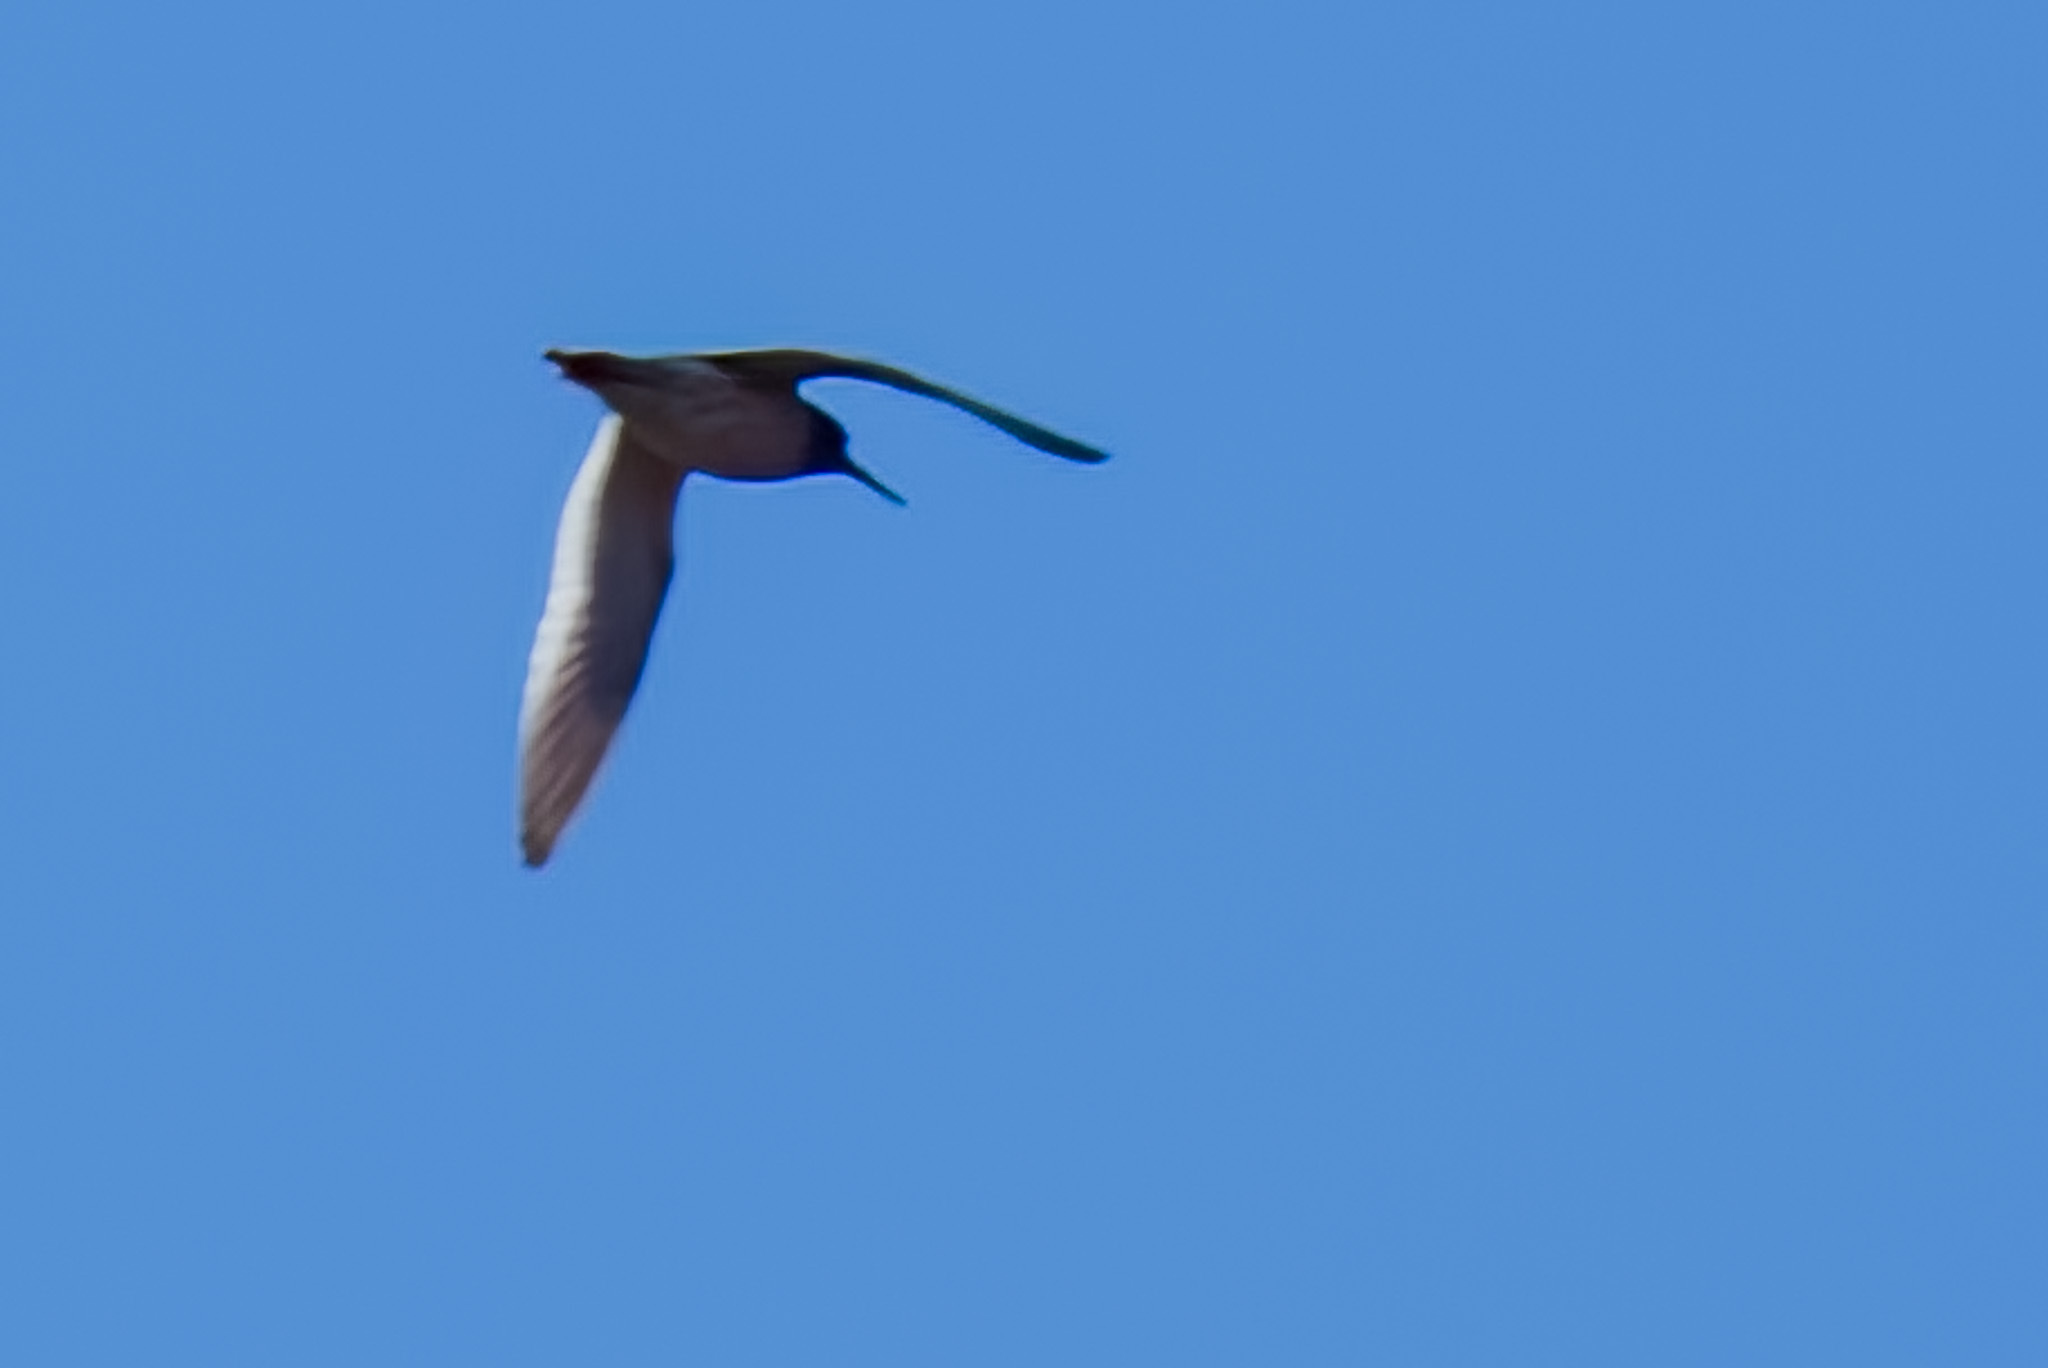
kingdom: Animalia
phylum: Chordata
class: Aves
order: Charadriiformes
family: Scolopacidae
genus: Tringa
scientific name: Tringa totanus
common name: Common redshank
